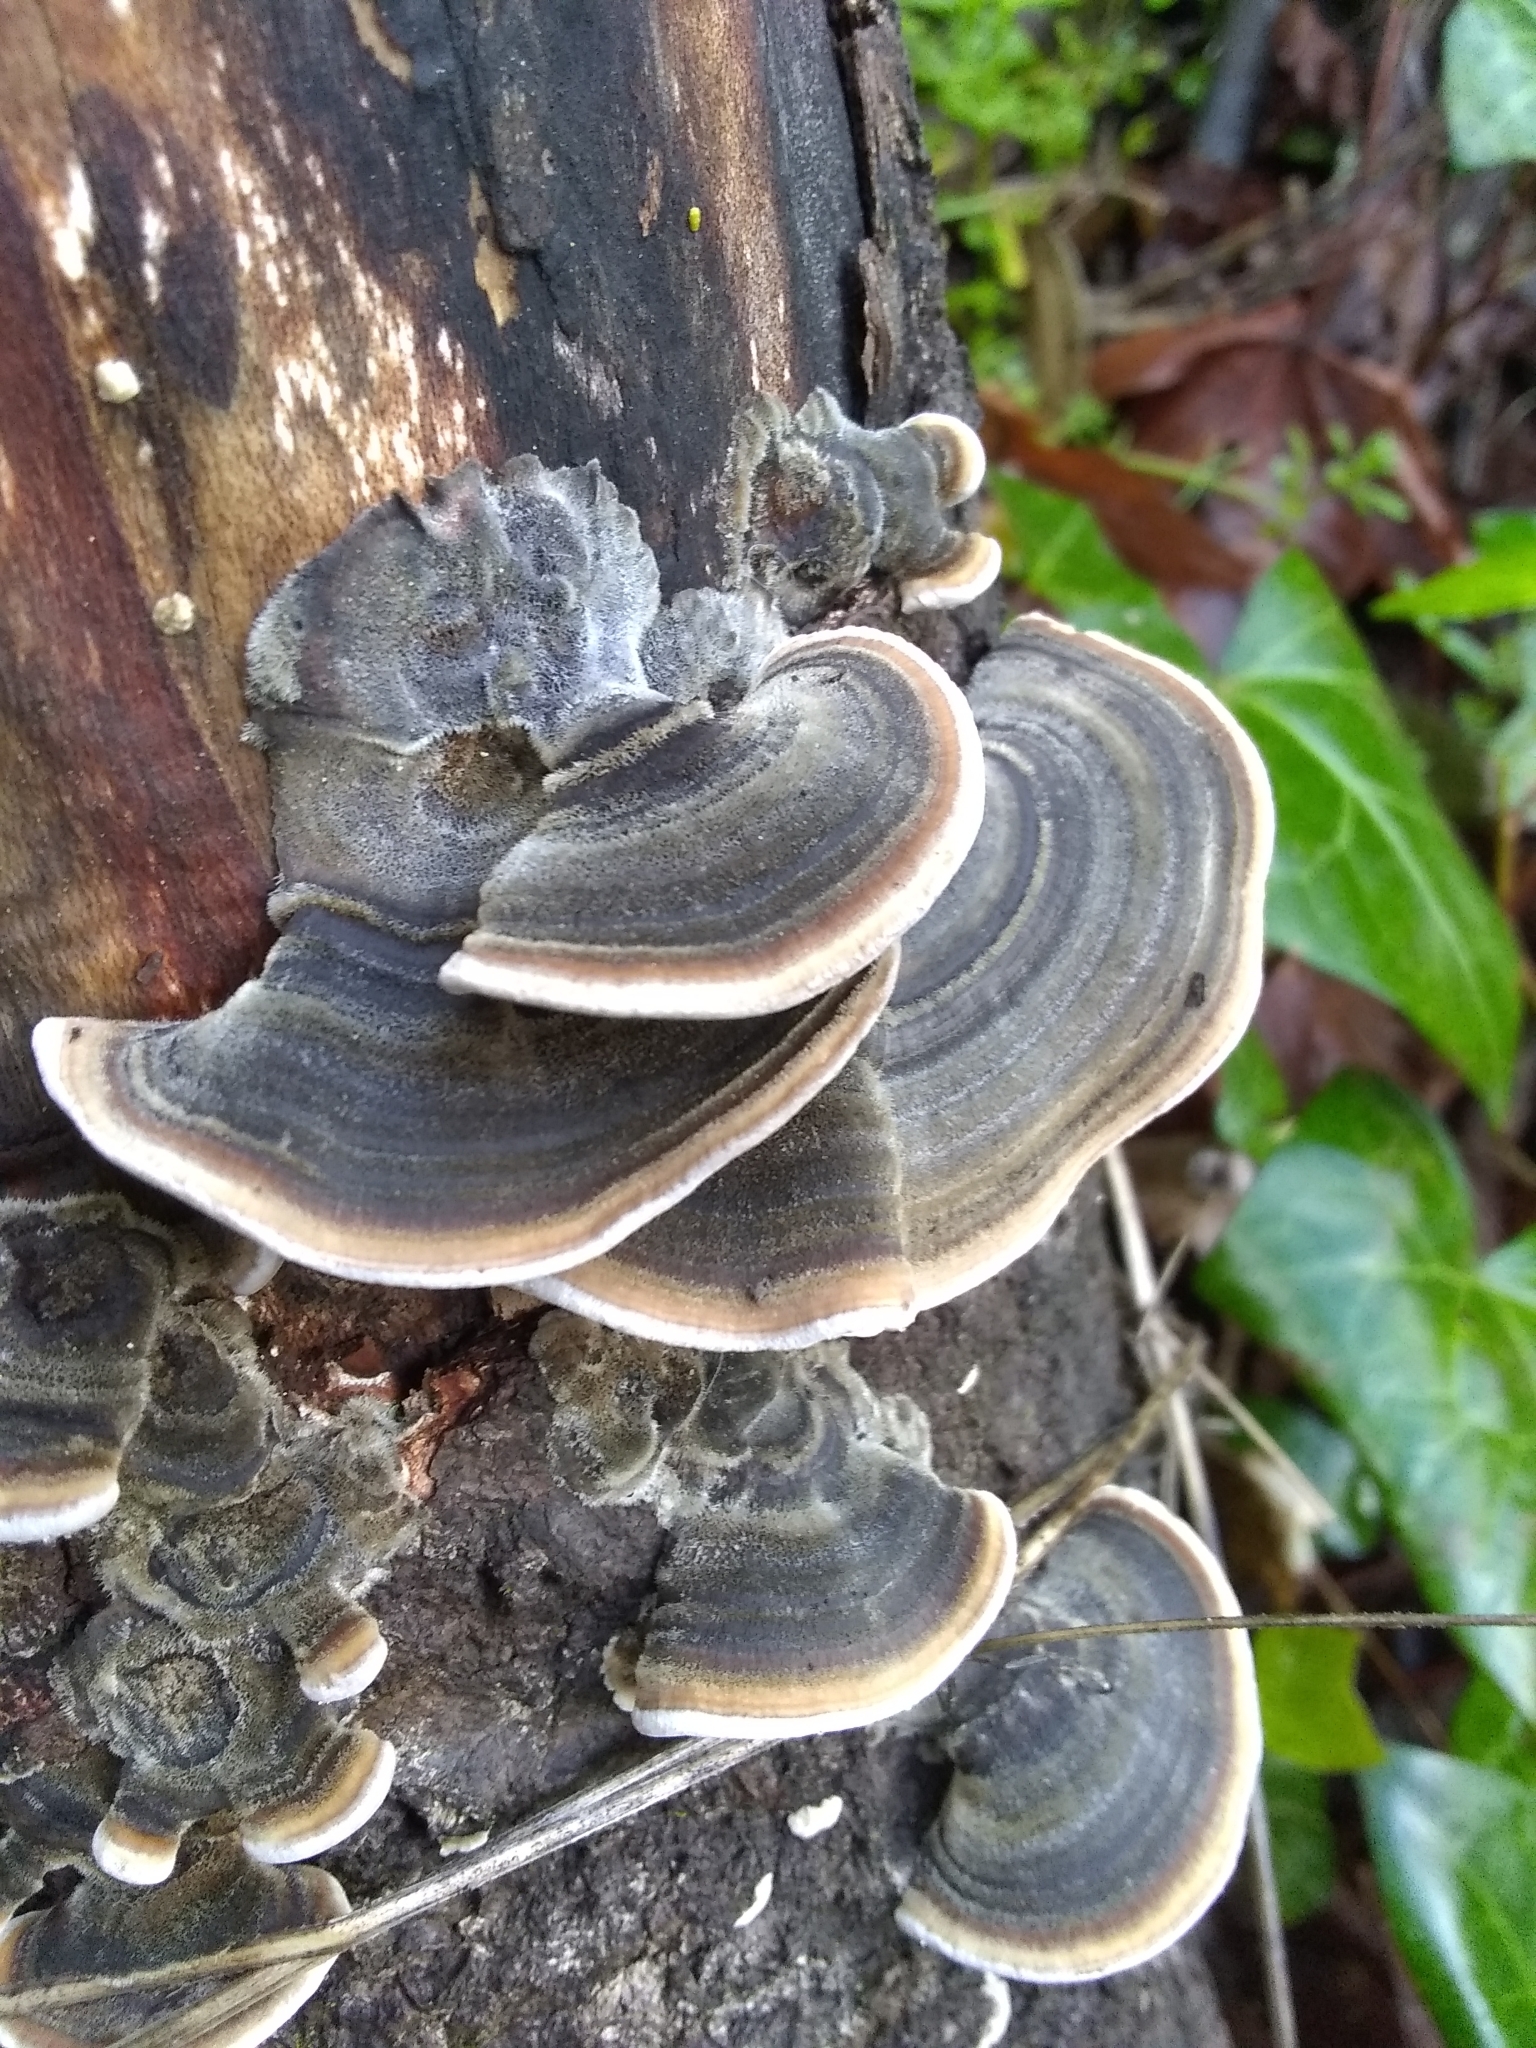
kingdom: Fungi
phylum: Basidiomycota
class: Agaricomycetes
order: Polyporales
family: Polyporaceae
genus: Trametes
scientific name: Trametes versicolor
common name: Turkeytail
